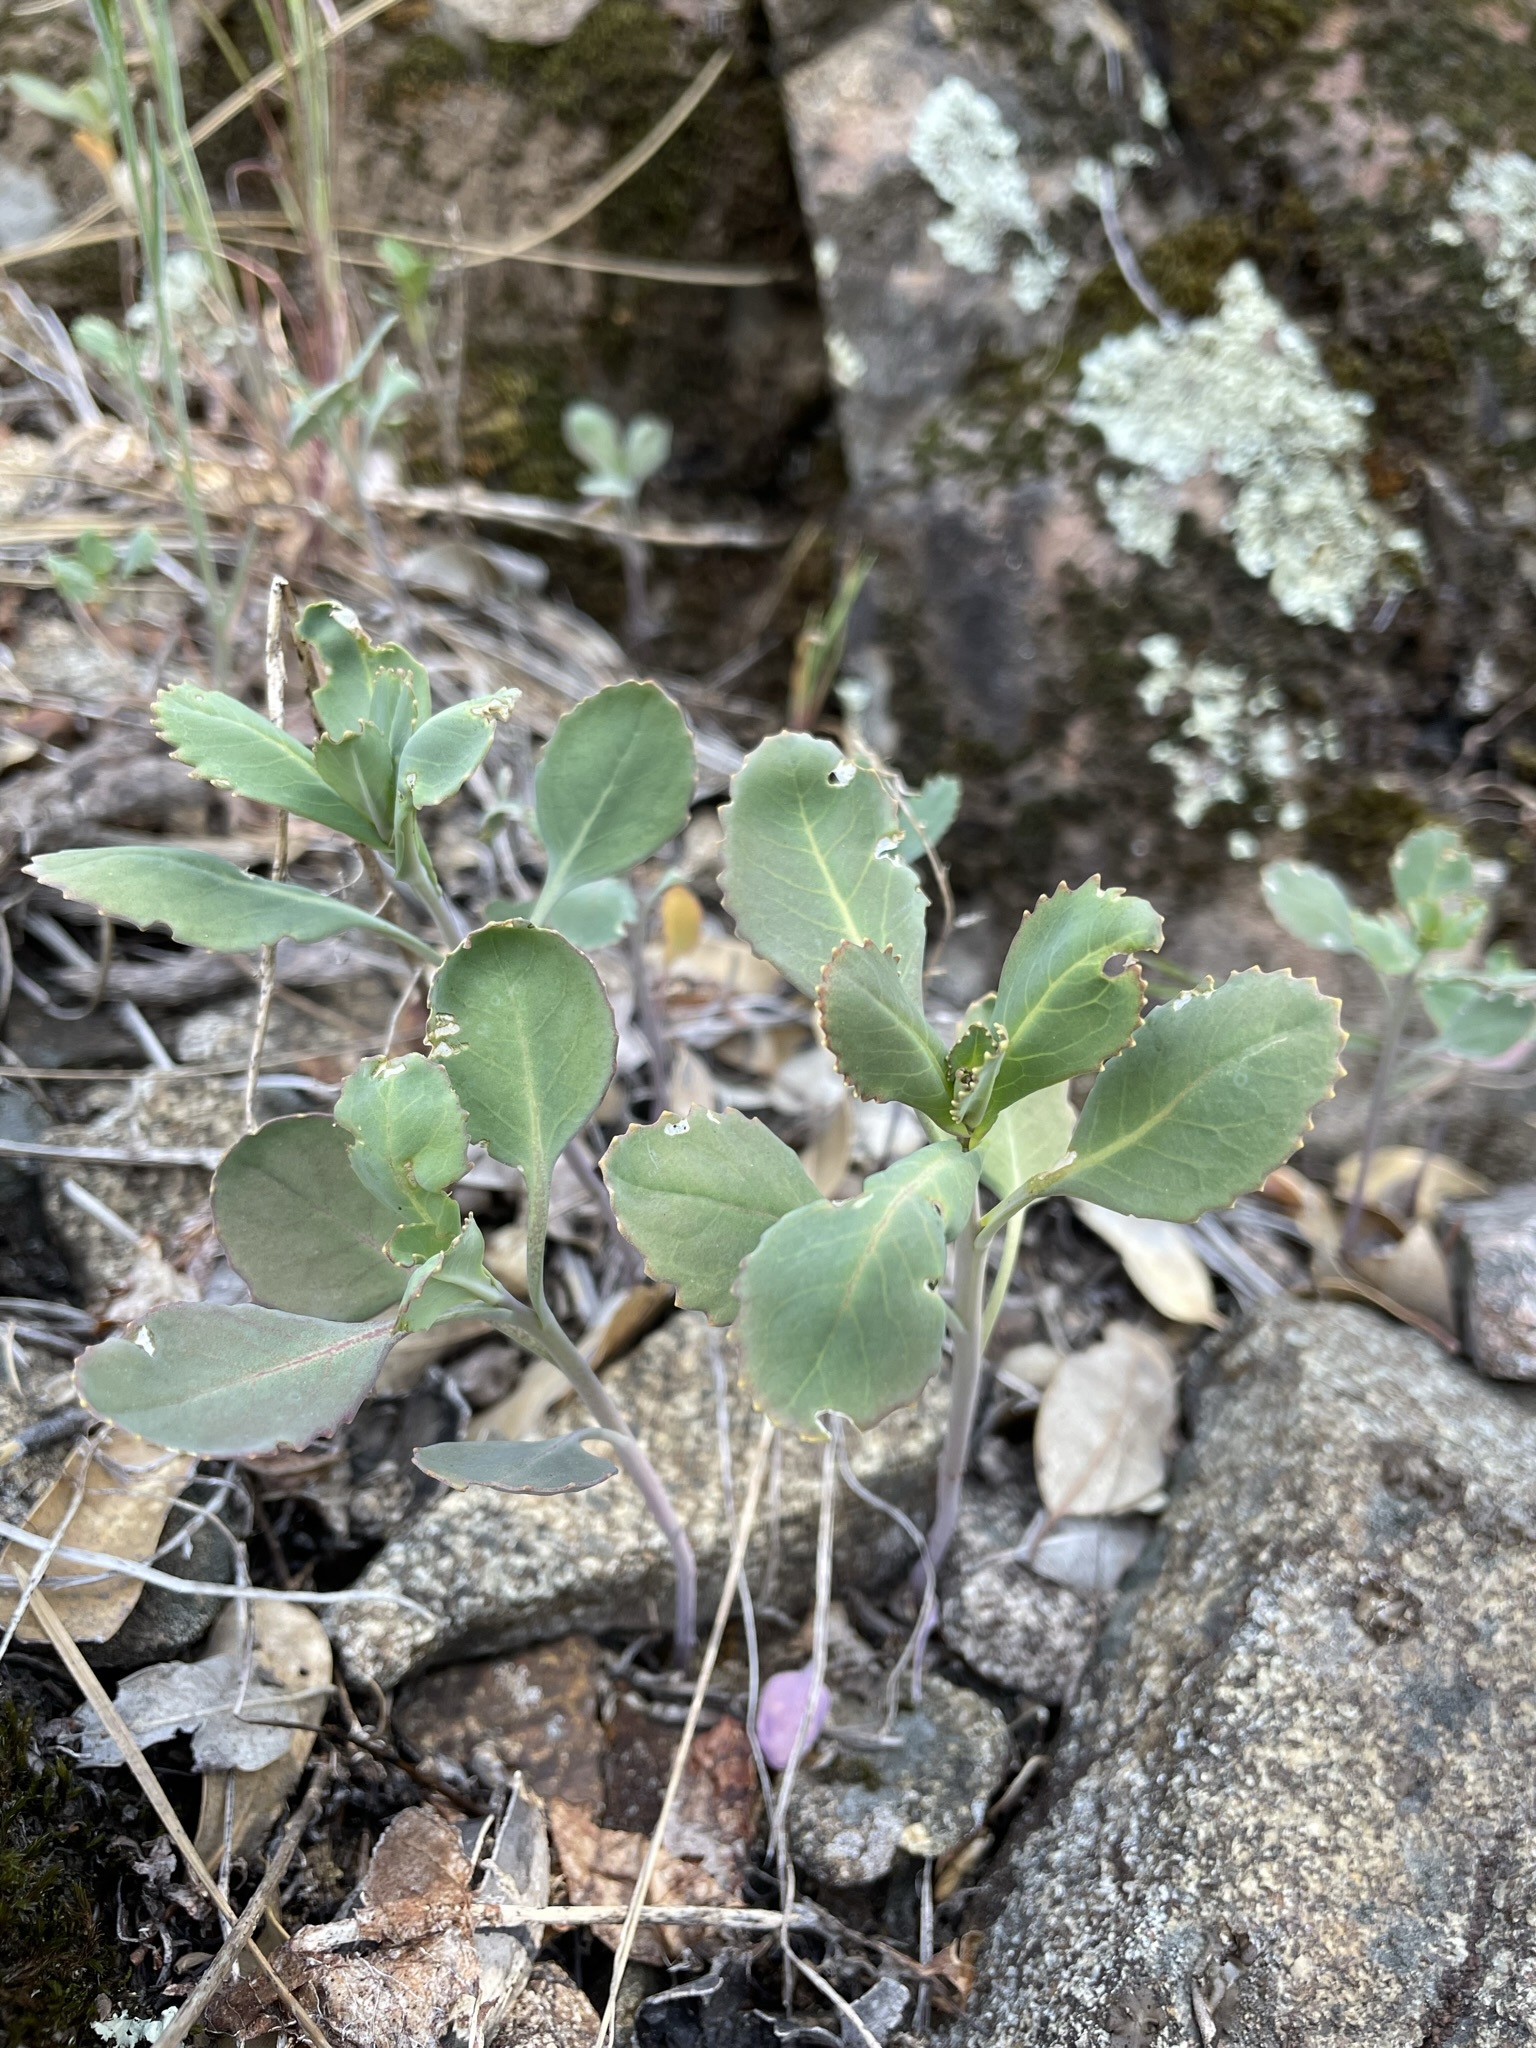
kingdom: Plantae
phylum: Tracheophyta
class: Magnoliopsida
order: Brassicales
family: Brassicaceae
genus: Streptanthus
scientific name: Streptanthus tortuosus
